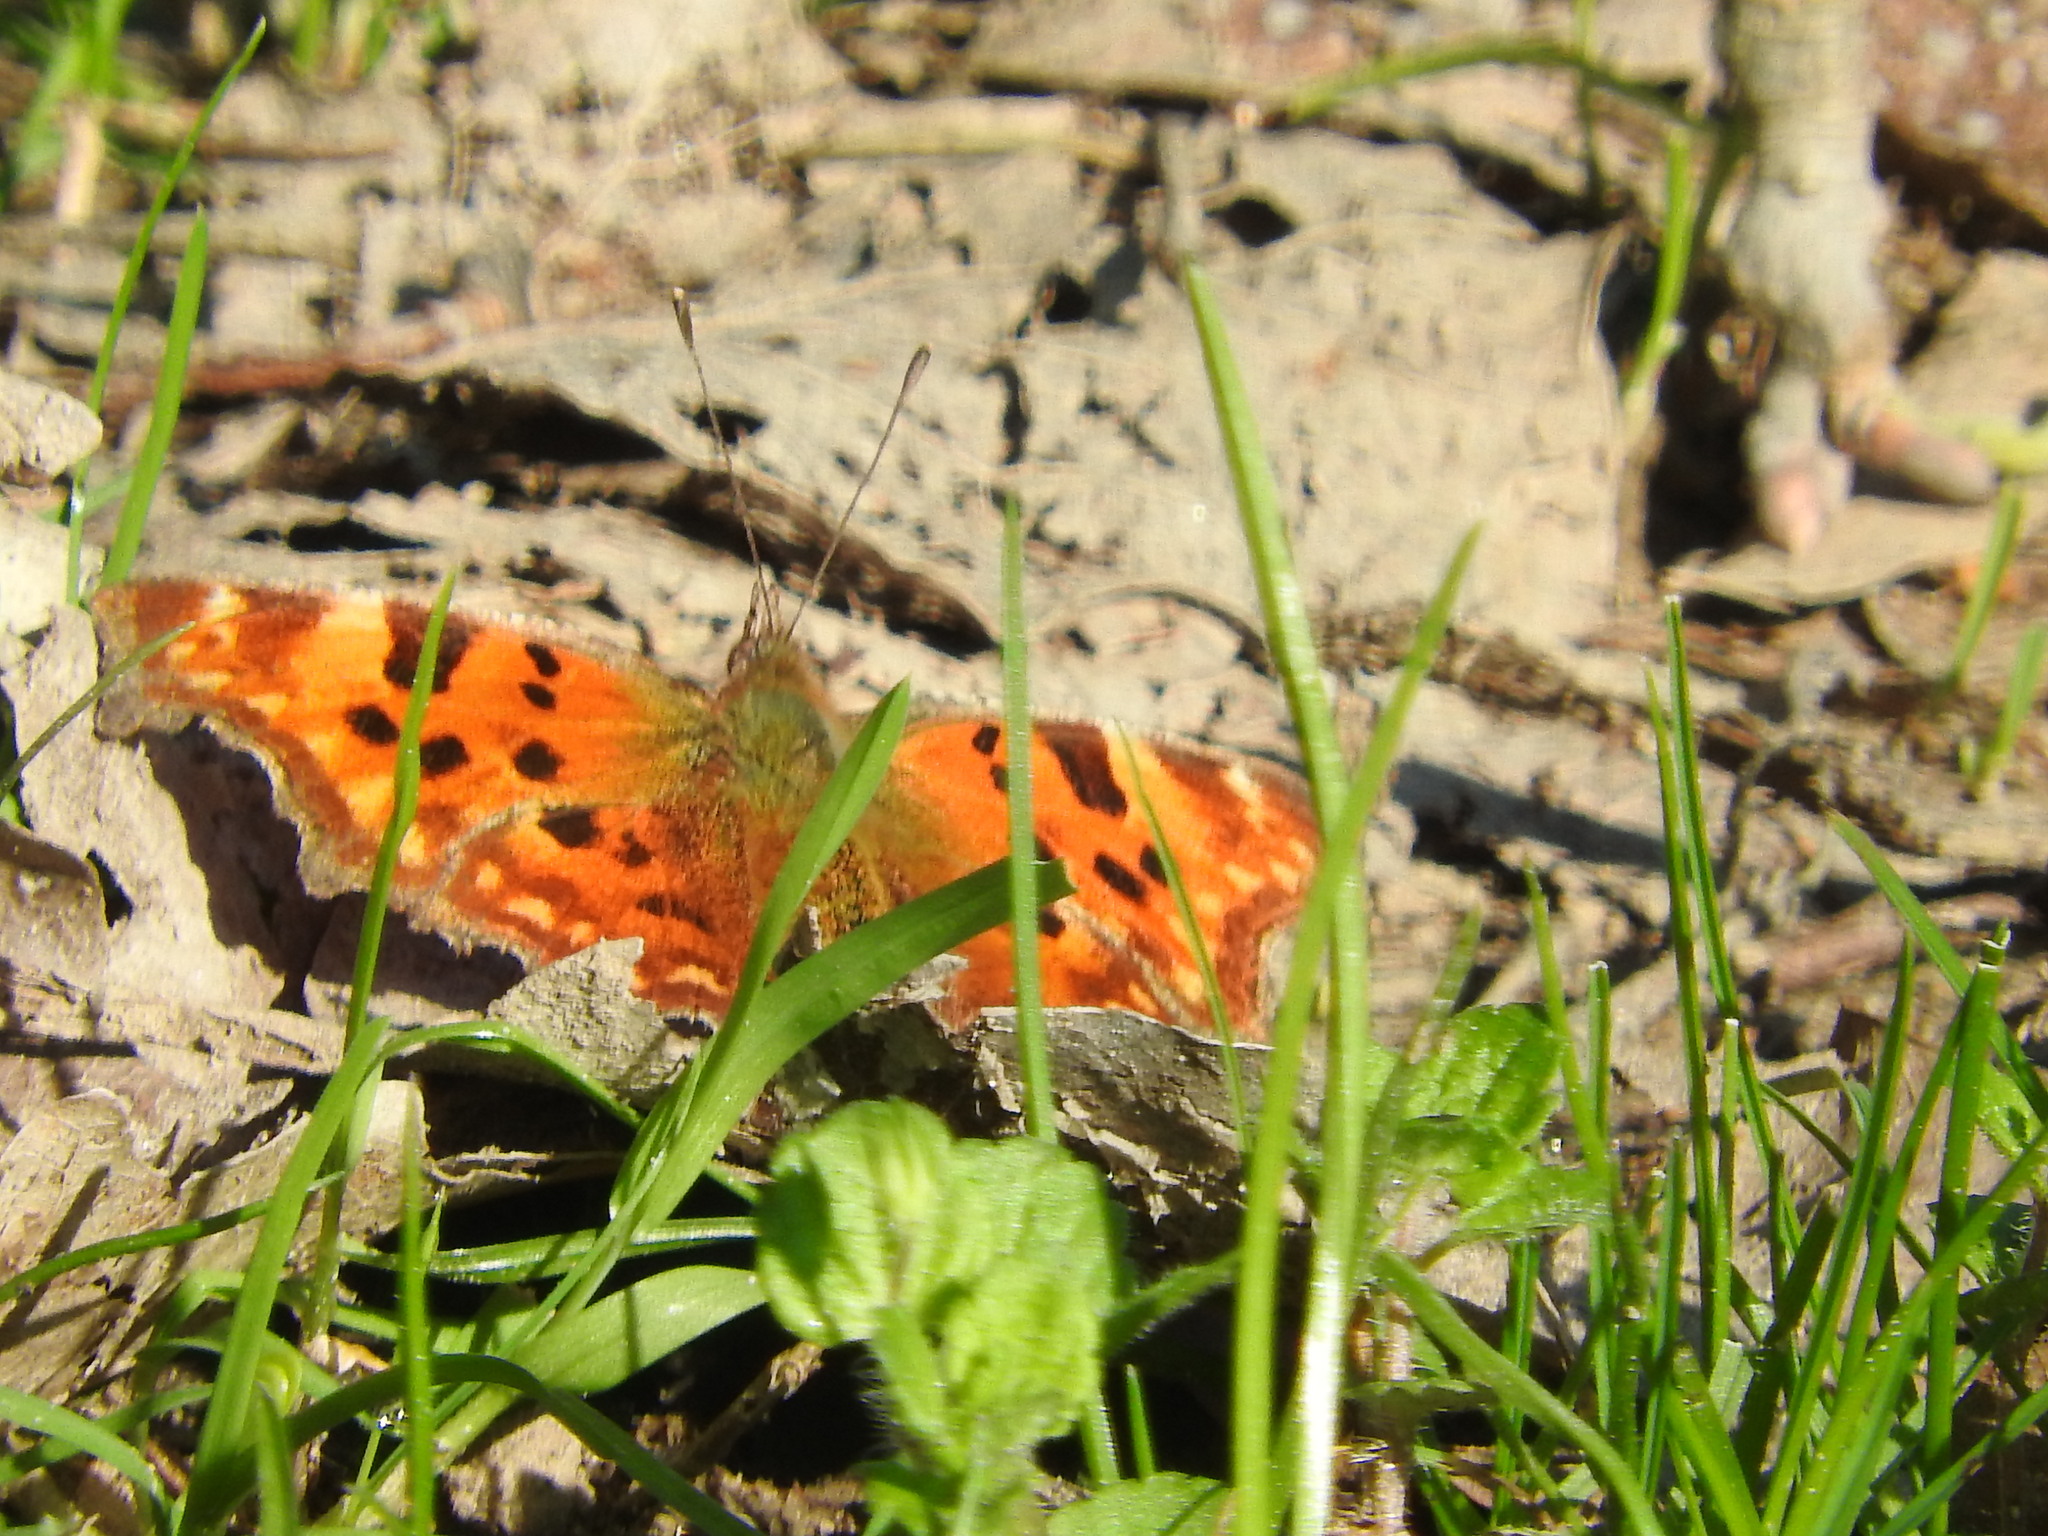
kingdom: Animalia
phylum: Arthropoda
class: Insecta
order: Lepidoptera
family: Nymphalidae
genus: Polygonia
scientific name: Polygonia c-album
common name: Comma
